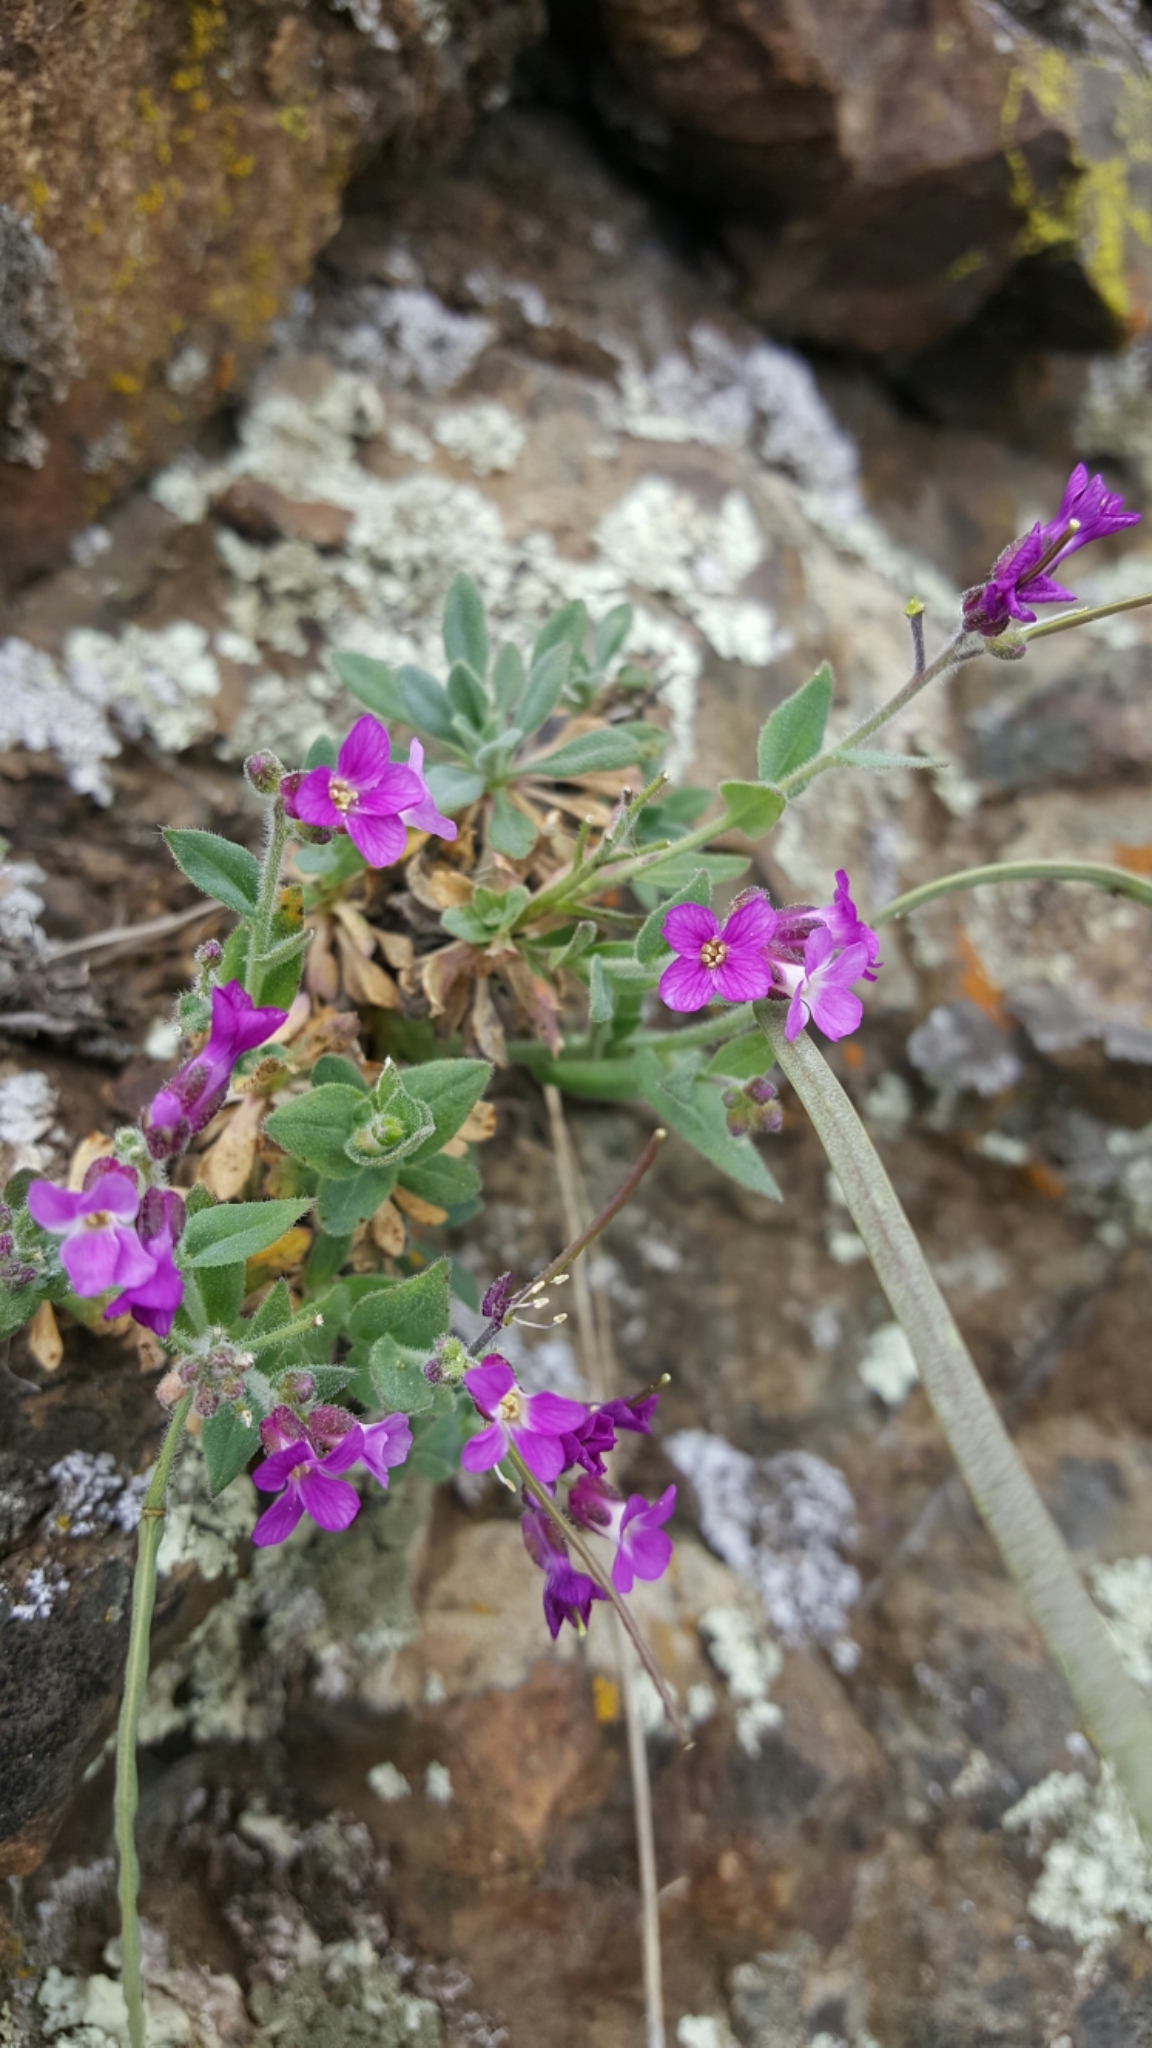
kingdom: Plantae
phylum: Tracheophyta
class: Magnoliopsida
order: Brassicales
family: Brassicaceae
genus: Boechera
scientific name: Boechera breweri
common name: Brewer's rockcress
